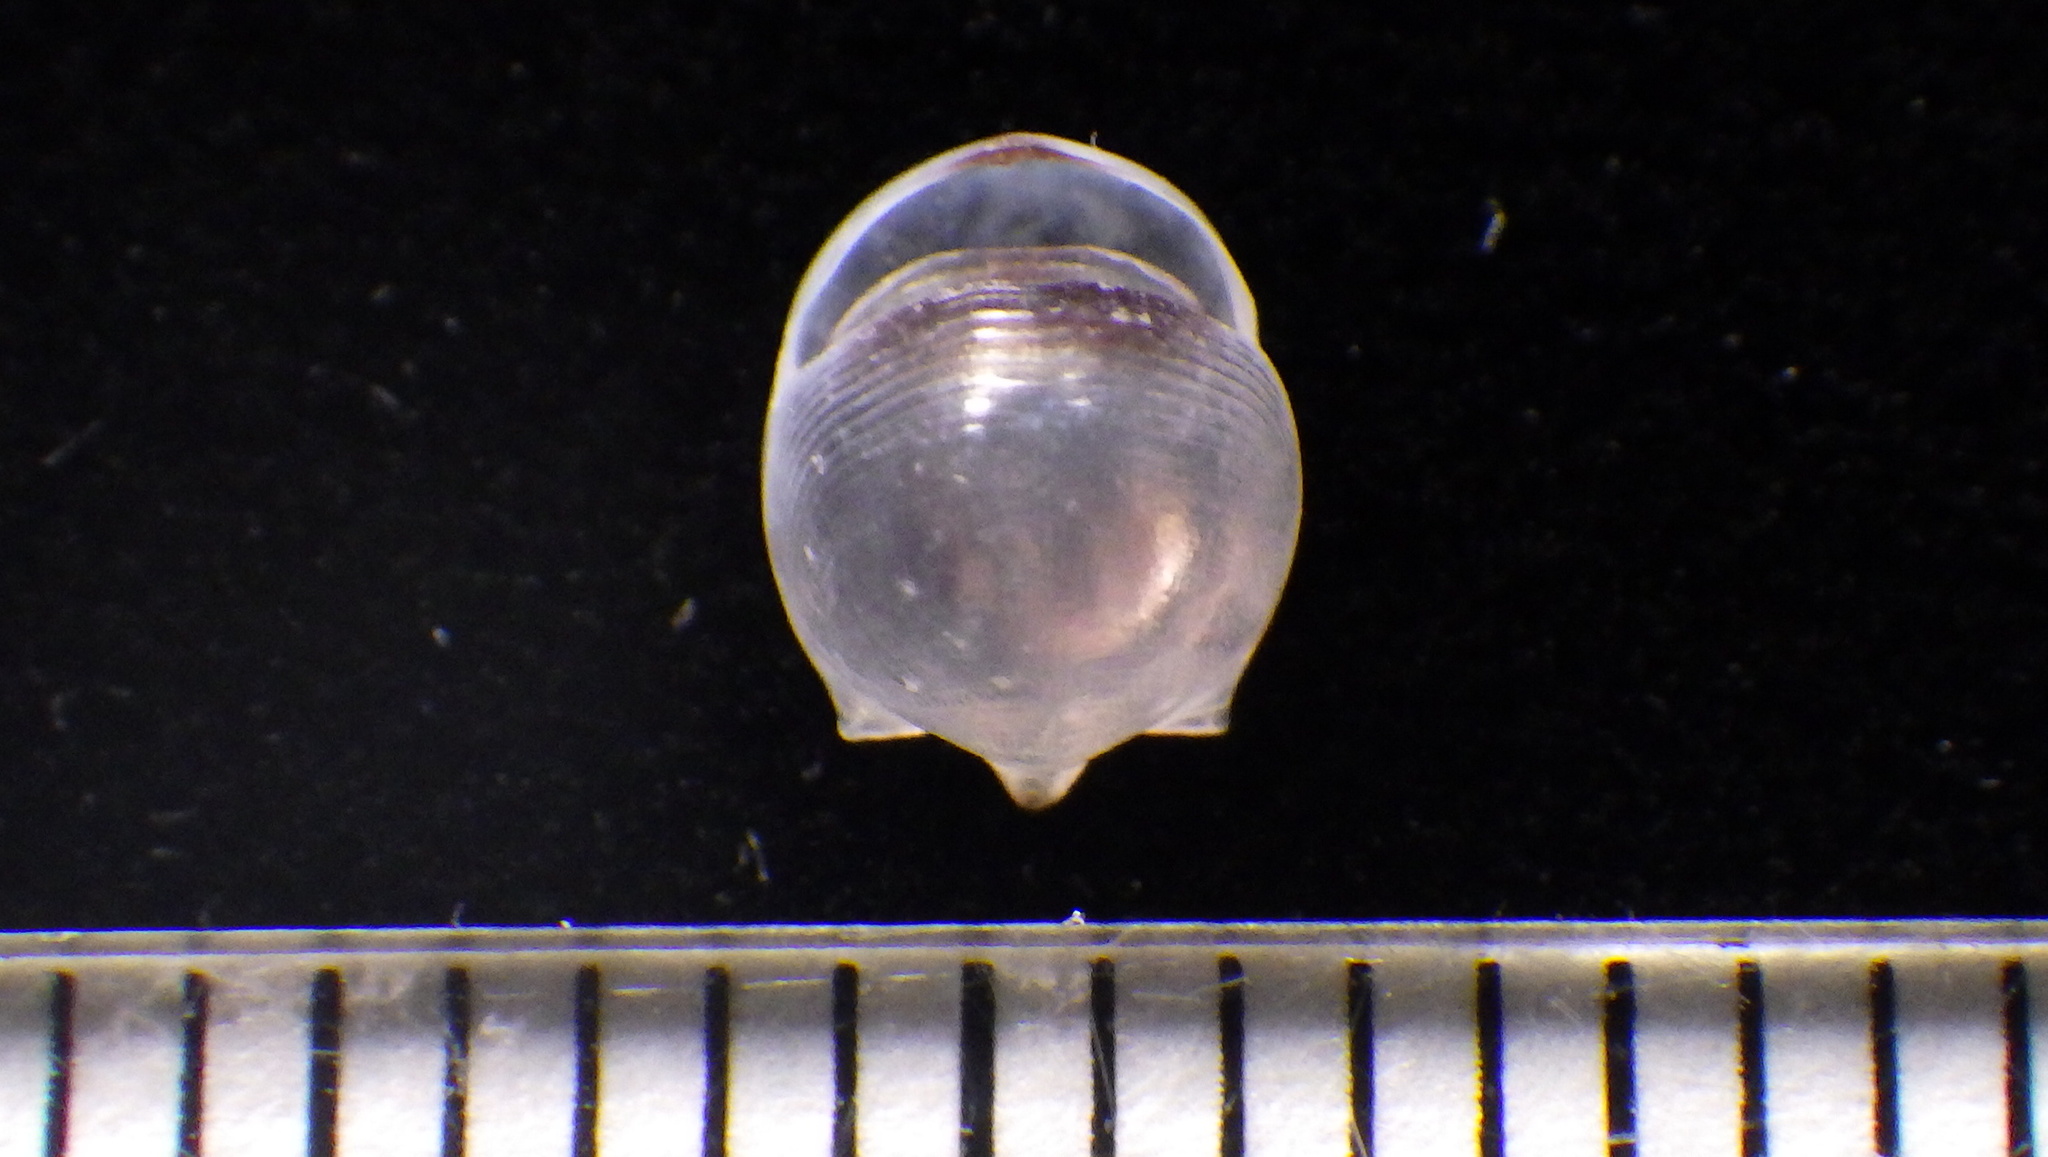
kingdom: Animalia
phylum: Mollusca
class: Gastropoda
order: Pteropoda
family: Cavoliniidae
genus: Cavolinia
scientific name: Cavolinia globulosa
